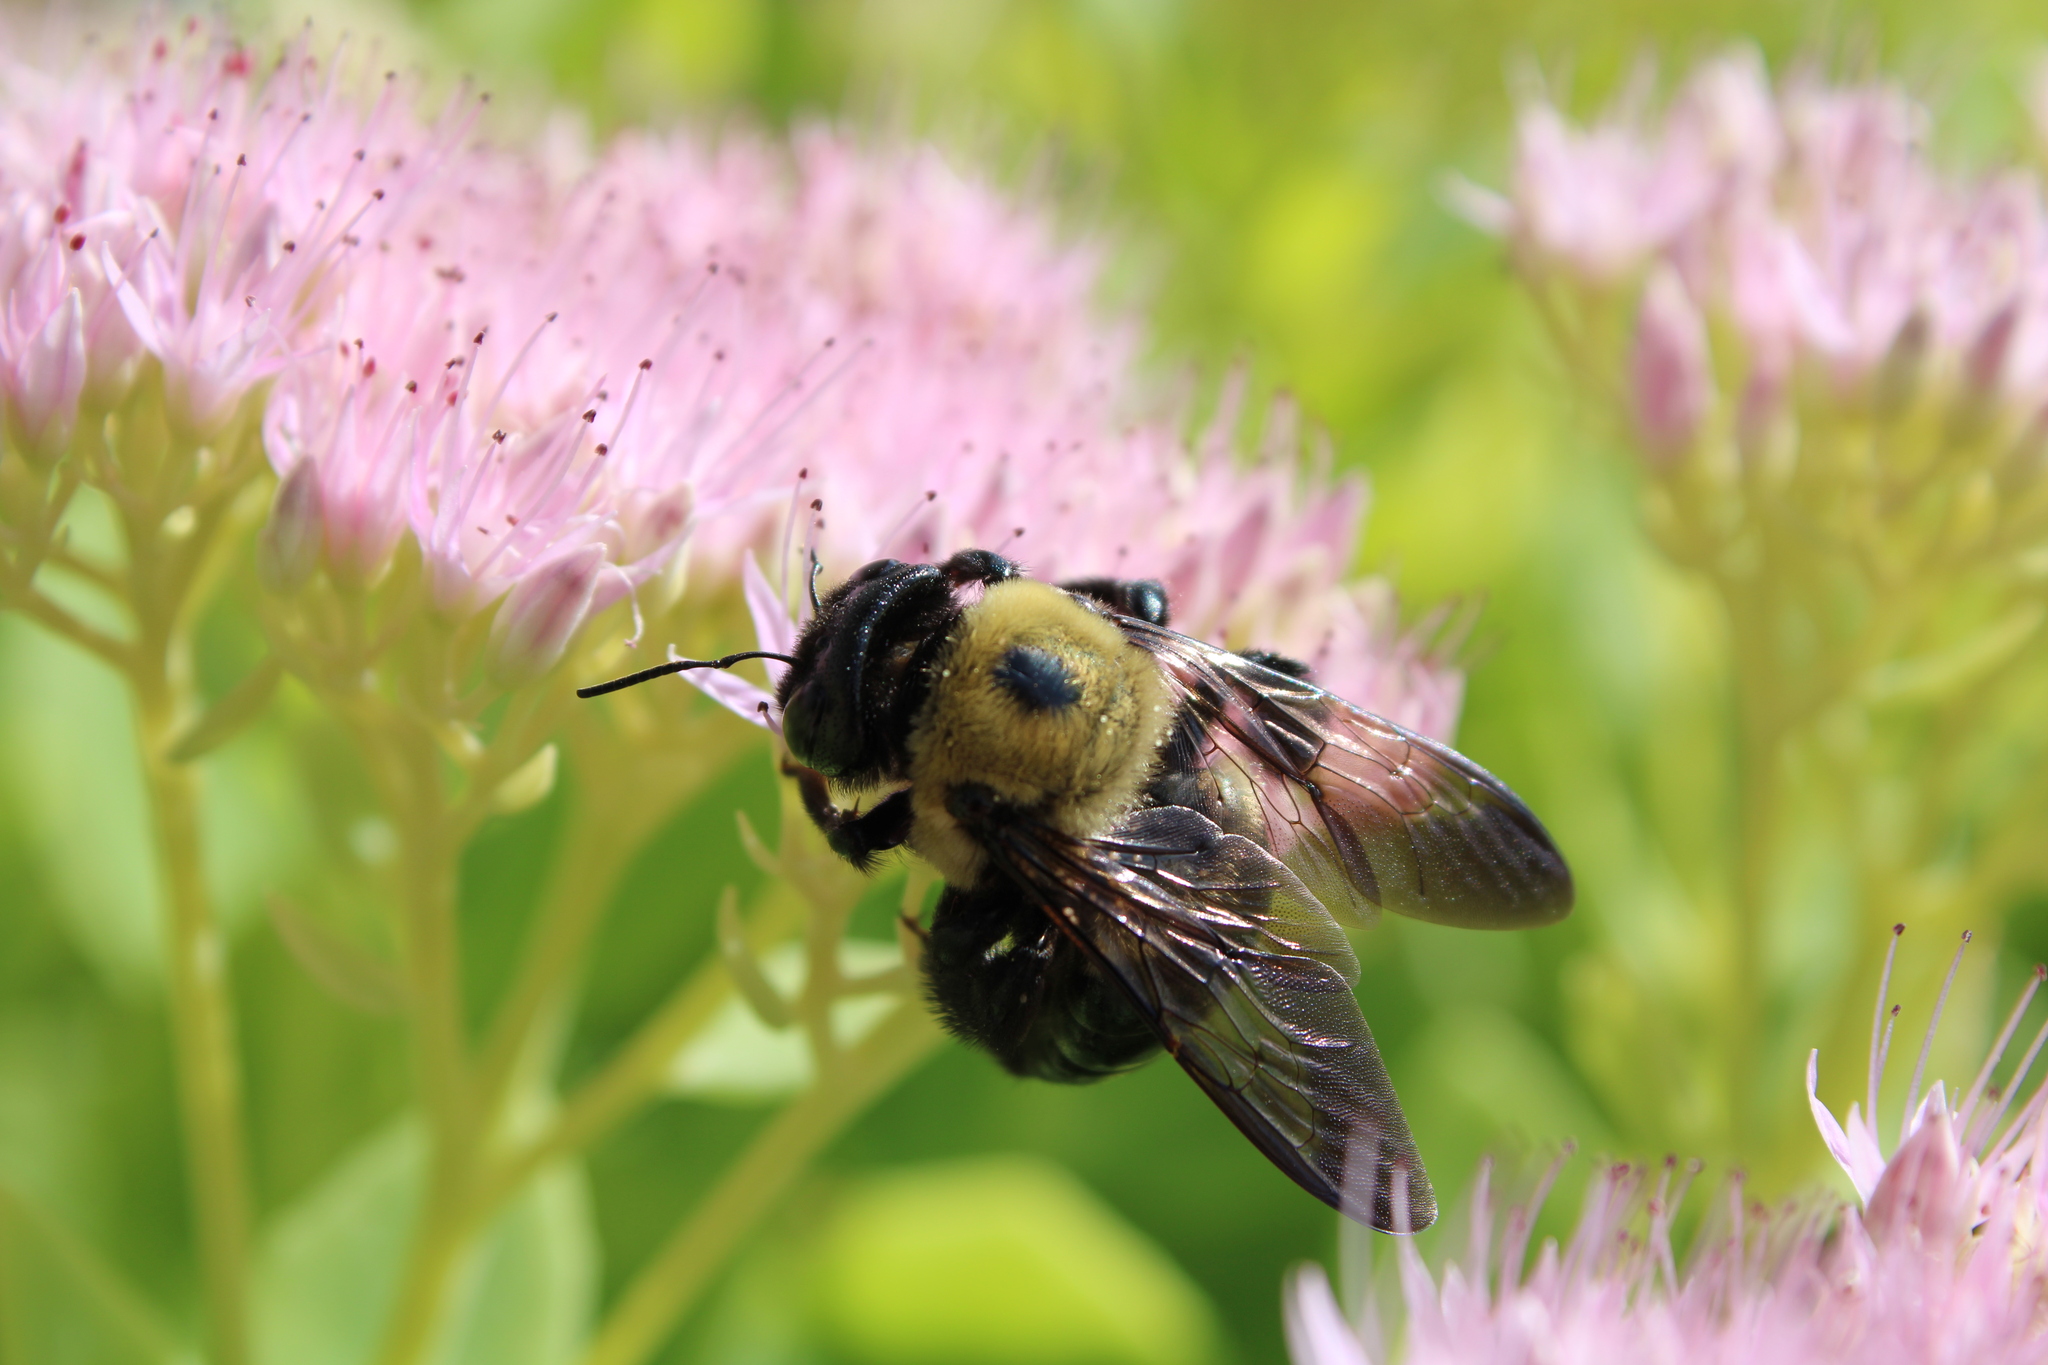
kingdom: Animalia
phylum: Arthropoda
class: Insecta
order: Hymenoptera
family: Apidae
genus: Xylocopa
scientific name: Xylocopa virginica
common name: Carpenter bee
